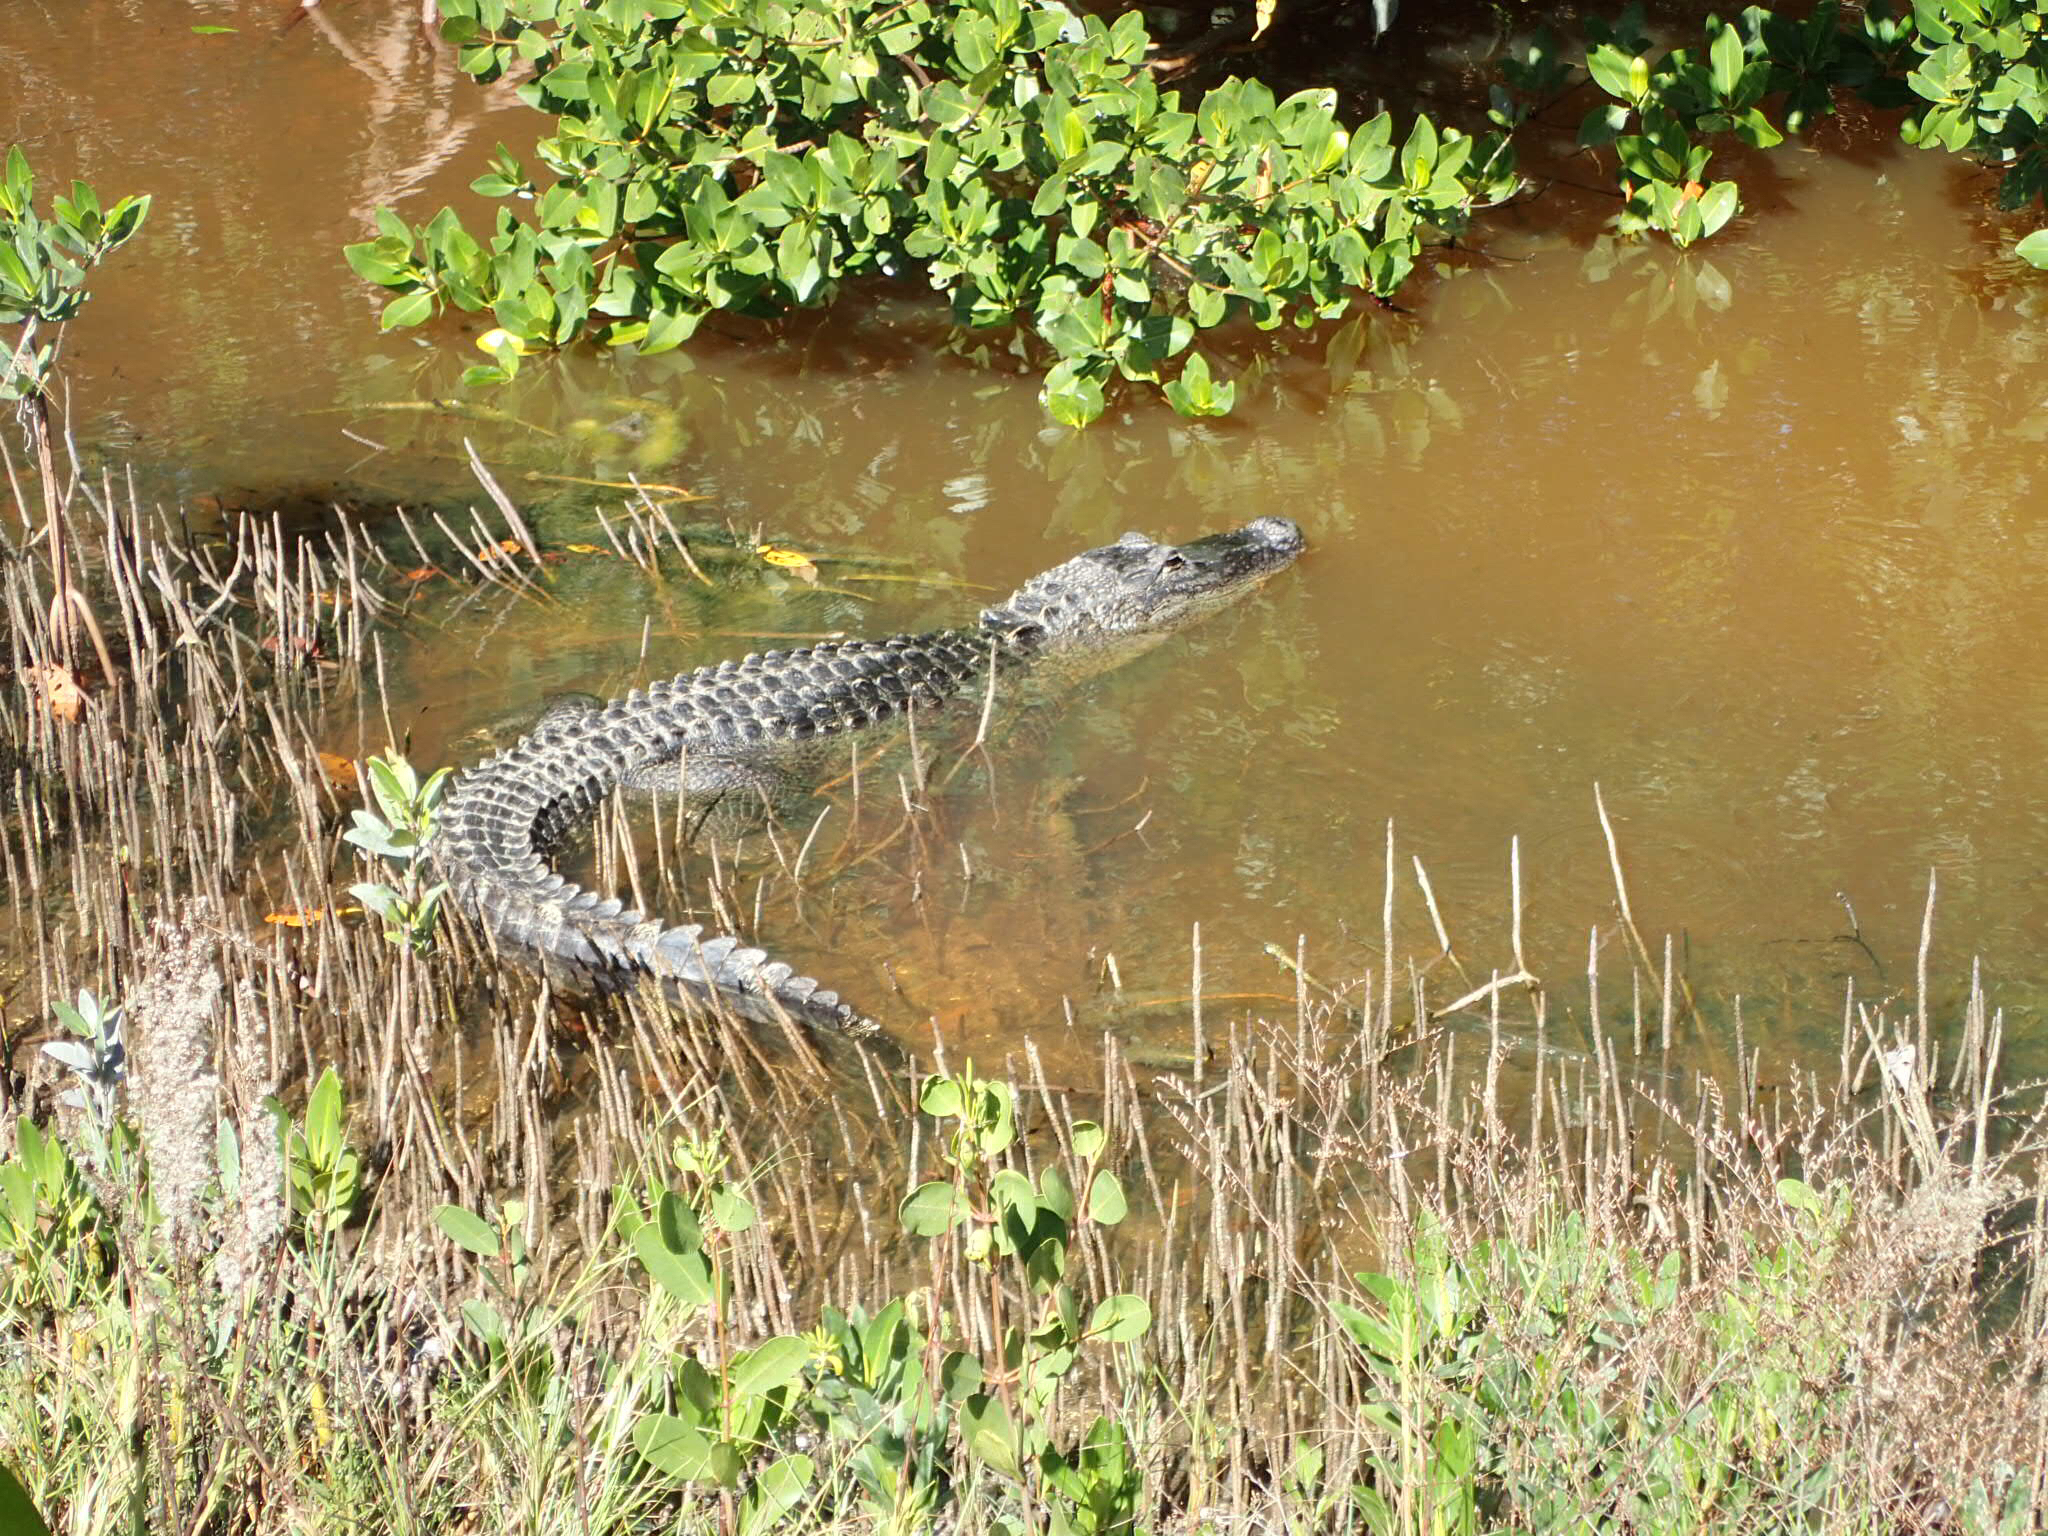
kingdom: Animalia
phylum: Chordata
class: Crocodylia
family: Alligatoridae
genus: Alligator
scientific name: Alligator mississippiensis
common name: American alligator
